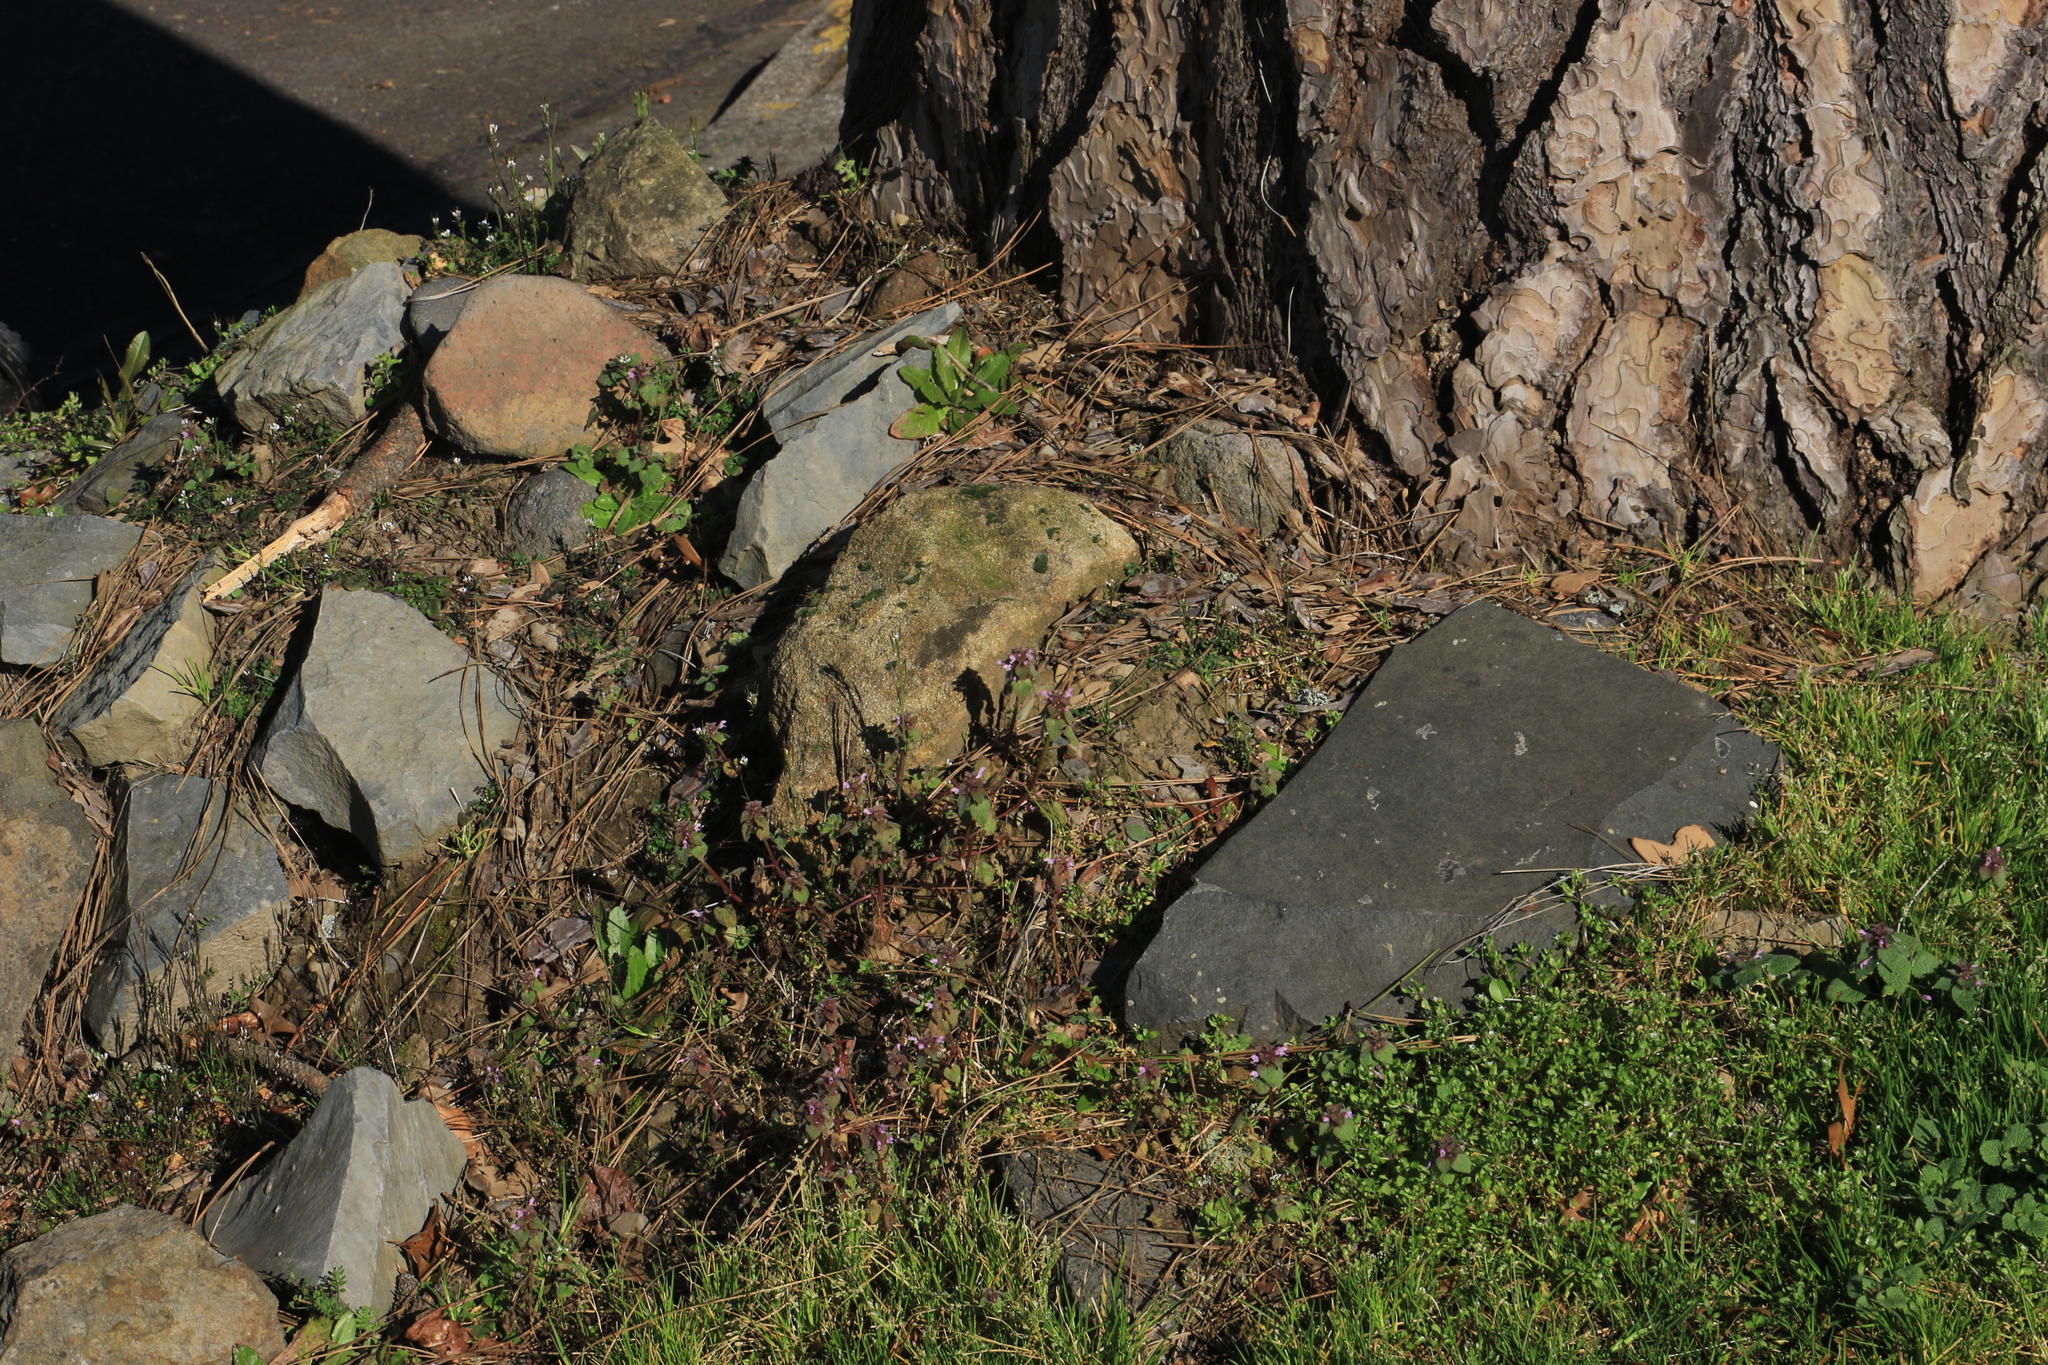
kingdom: Plantae
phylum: Tracheophyta
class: Magnoliopsida
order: Lamiales
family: Lamiaceae
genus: Lamium
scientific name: Lamium purpureum
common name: Red dead-nettle
